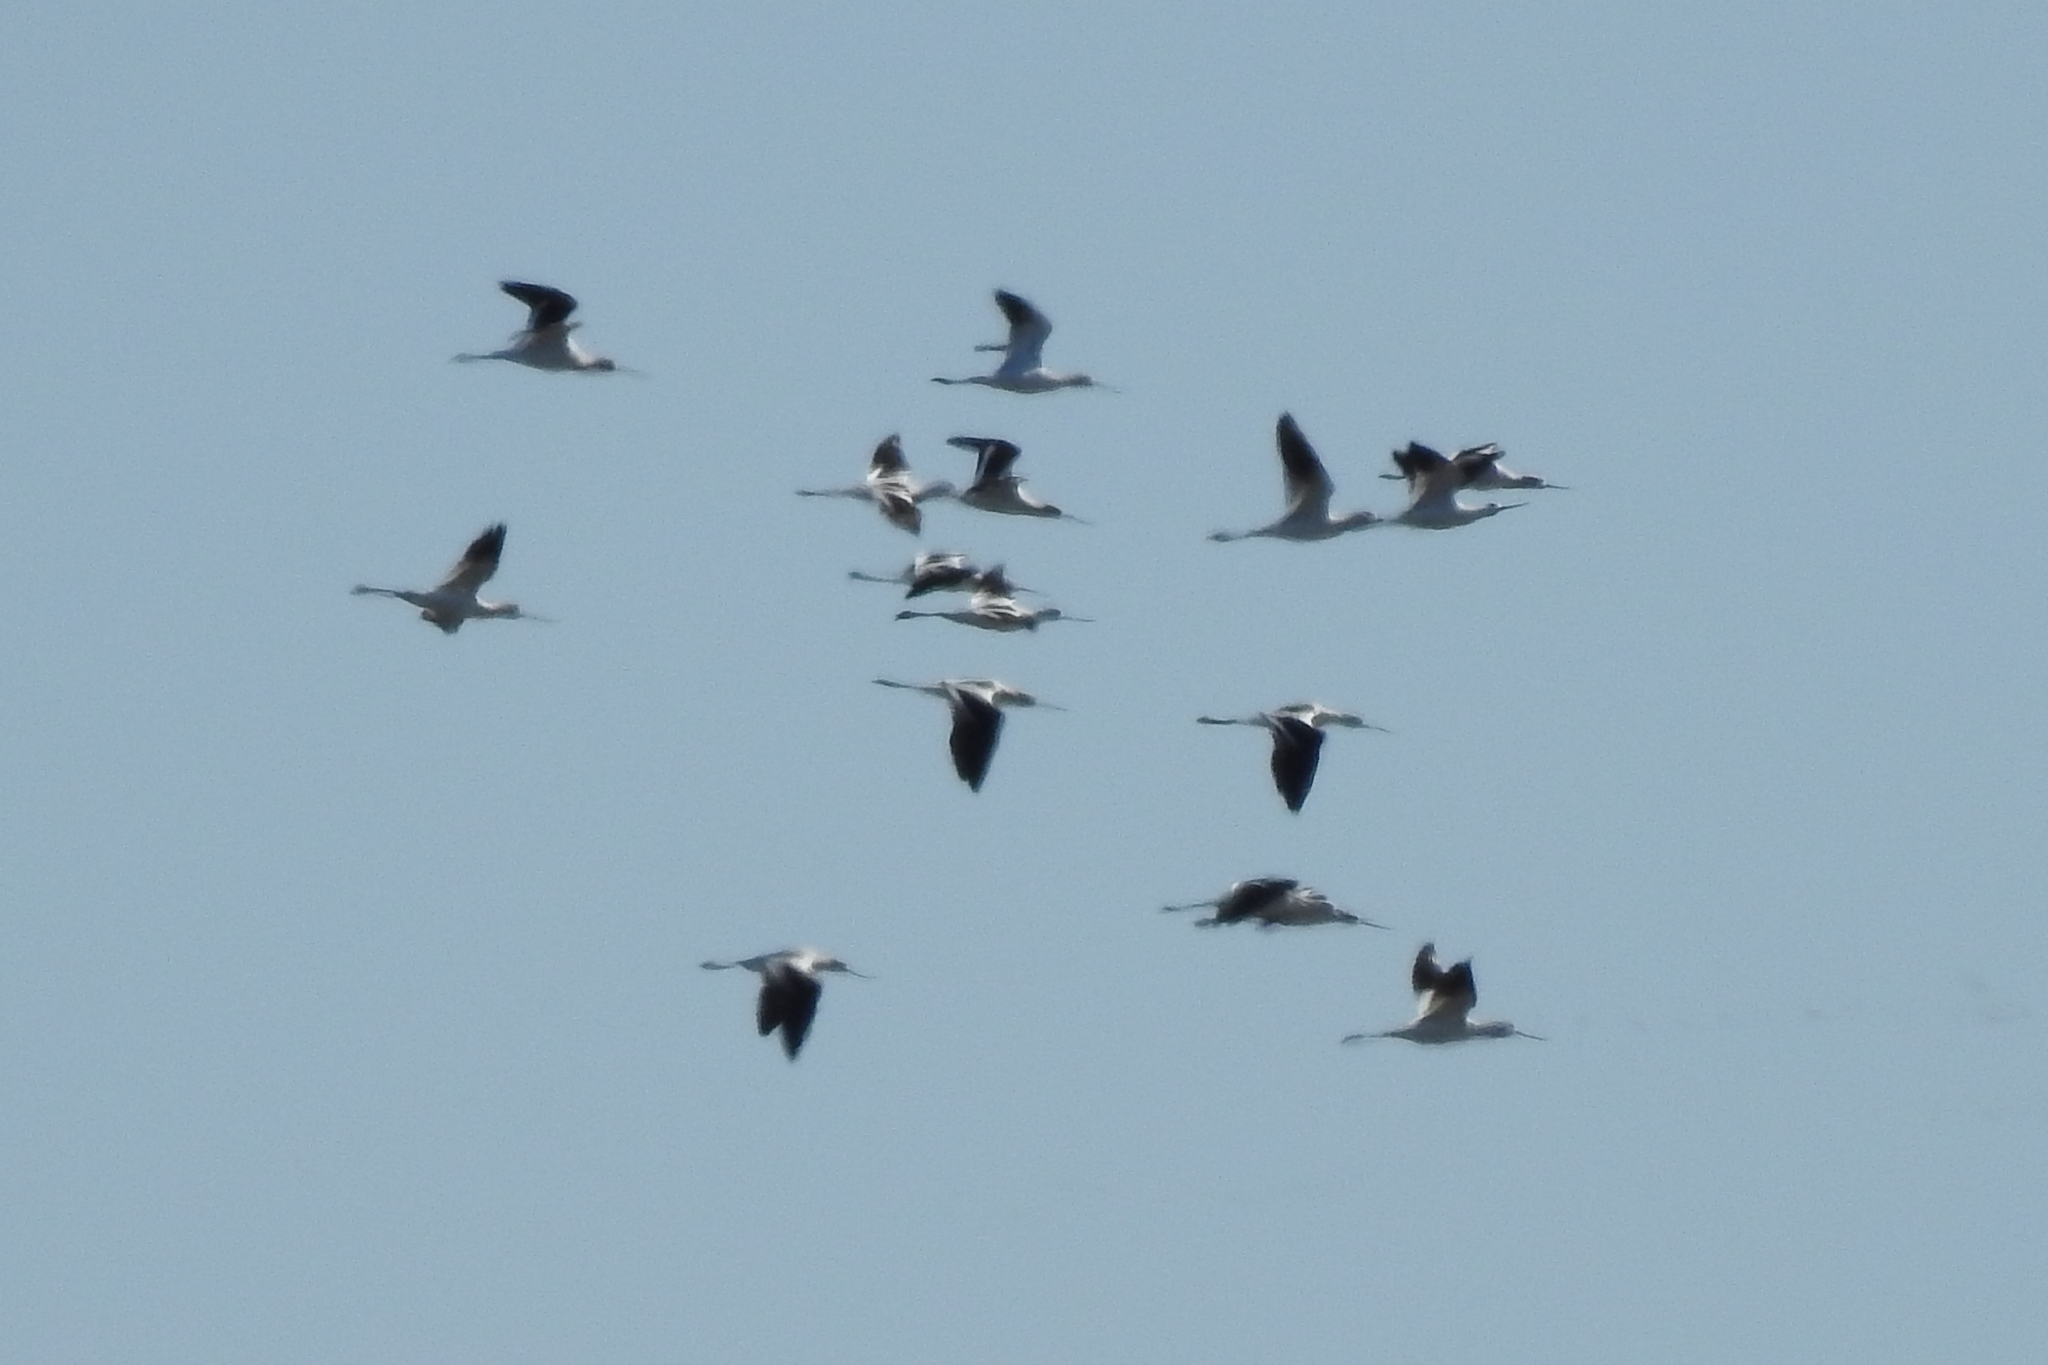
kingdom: Animalia
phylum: Chordata
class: Aves
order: Charadriiformes
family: Recurvirostridae
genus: Recurvirostra
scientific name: Recurvirostra americana
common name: American avocet
